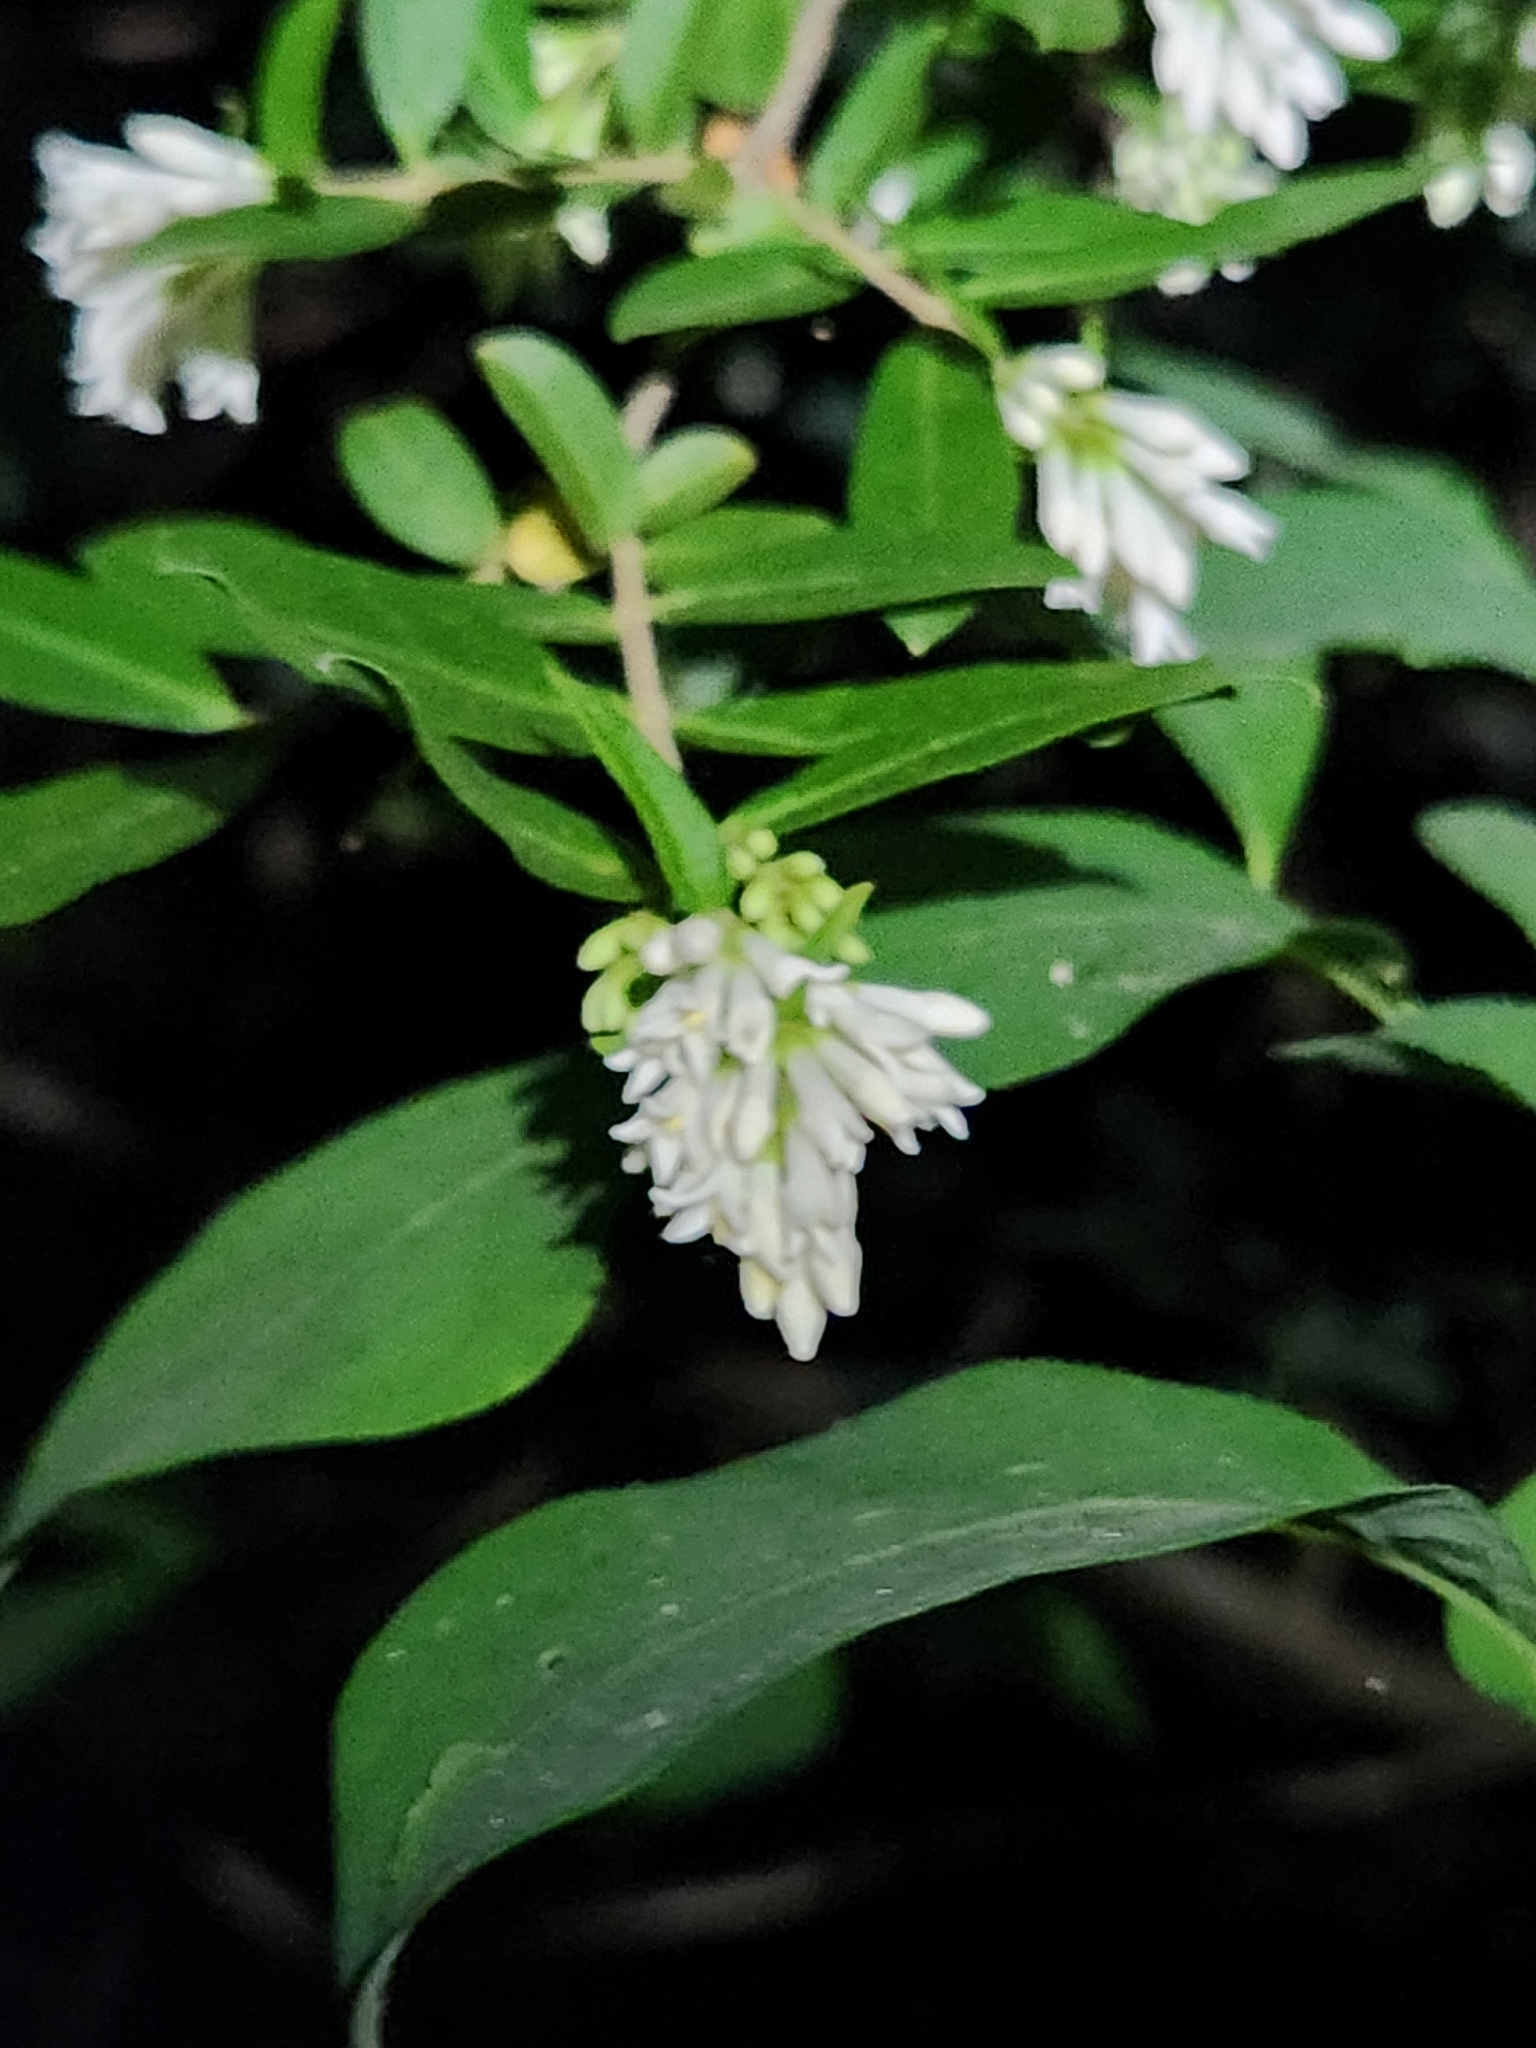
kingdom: Plantae
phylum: Tracheophyta
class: Magnoliopsida
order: Lamiales
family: Oleaceae
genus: Ligustrum
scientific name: Ligustrum obtusifolium
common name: Border privet
